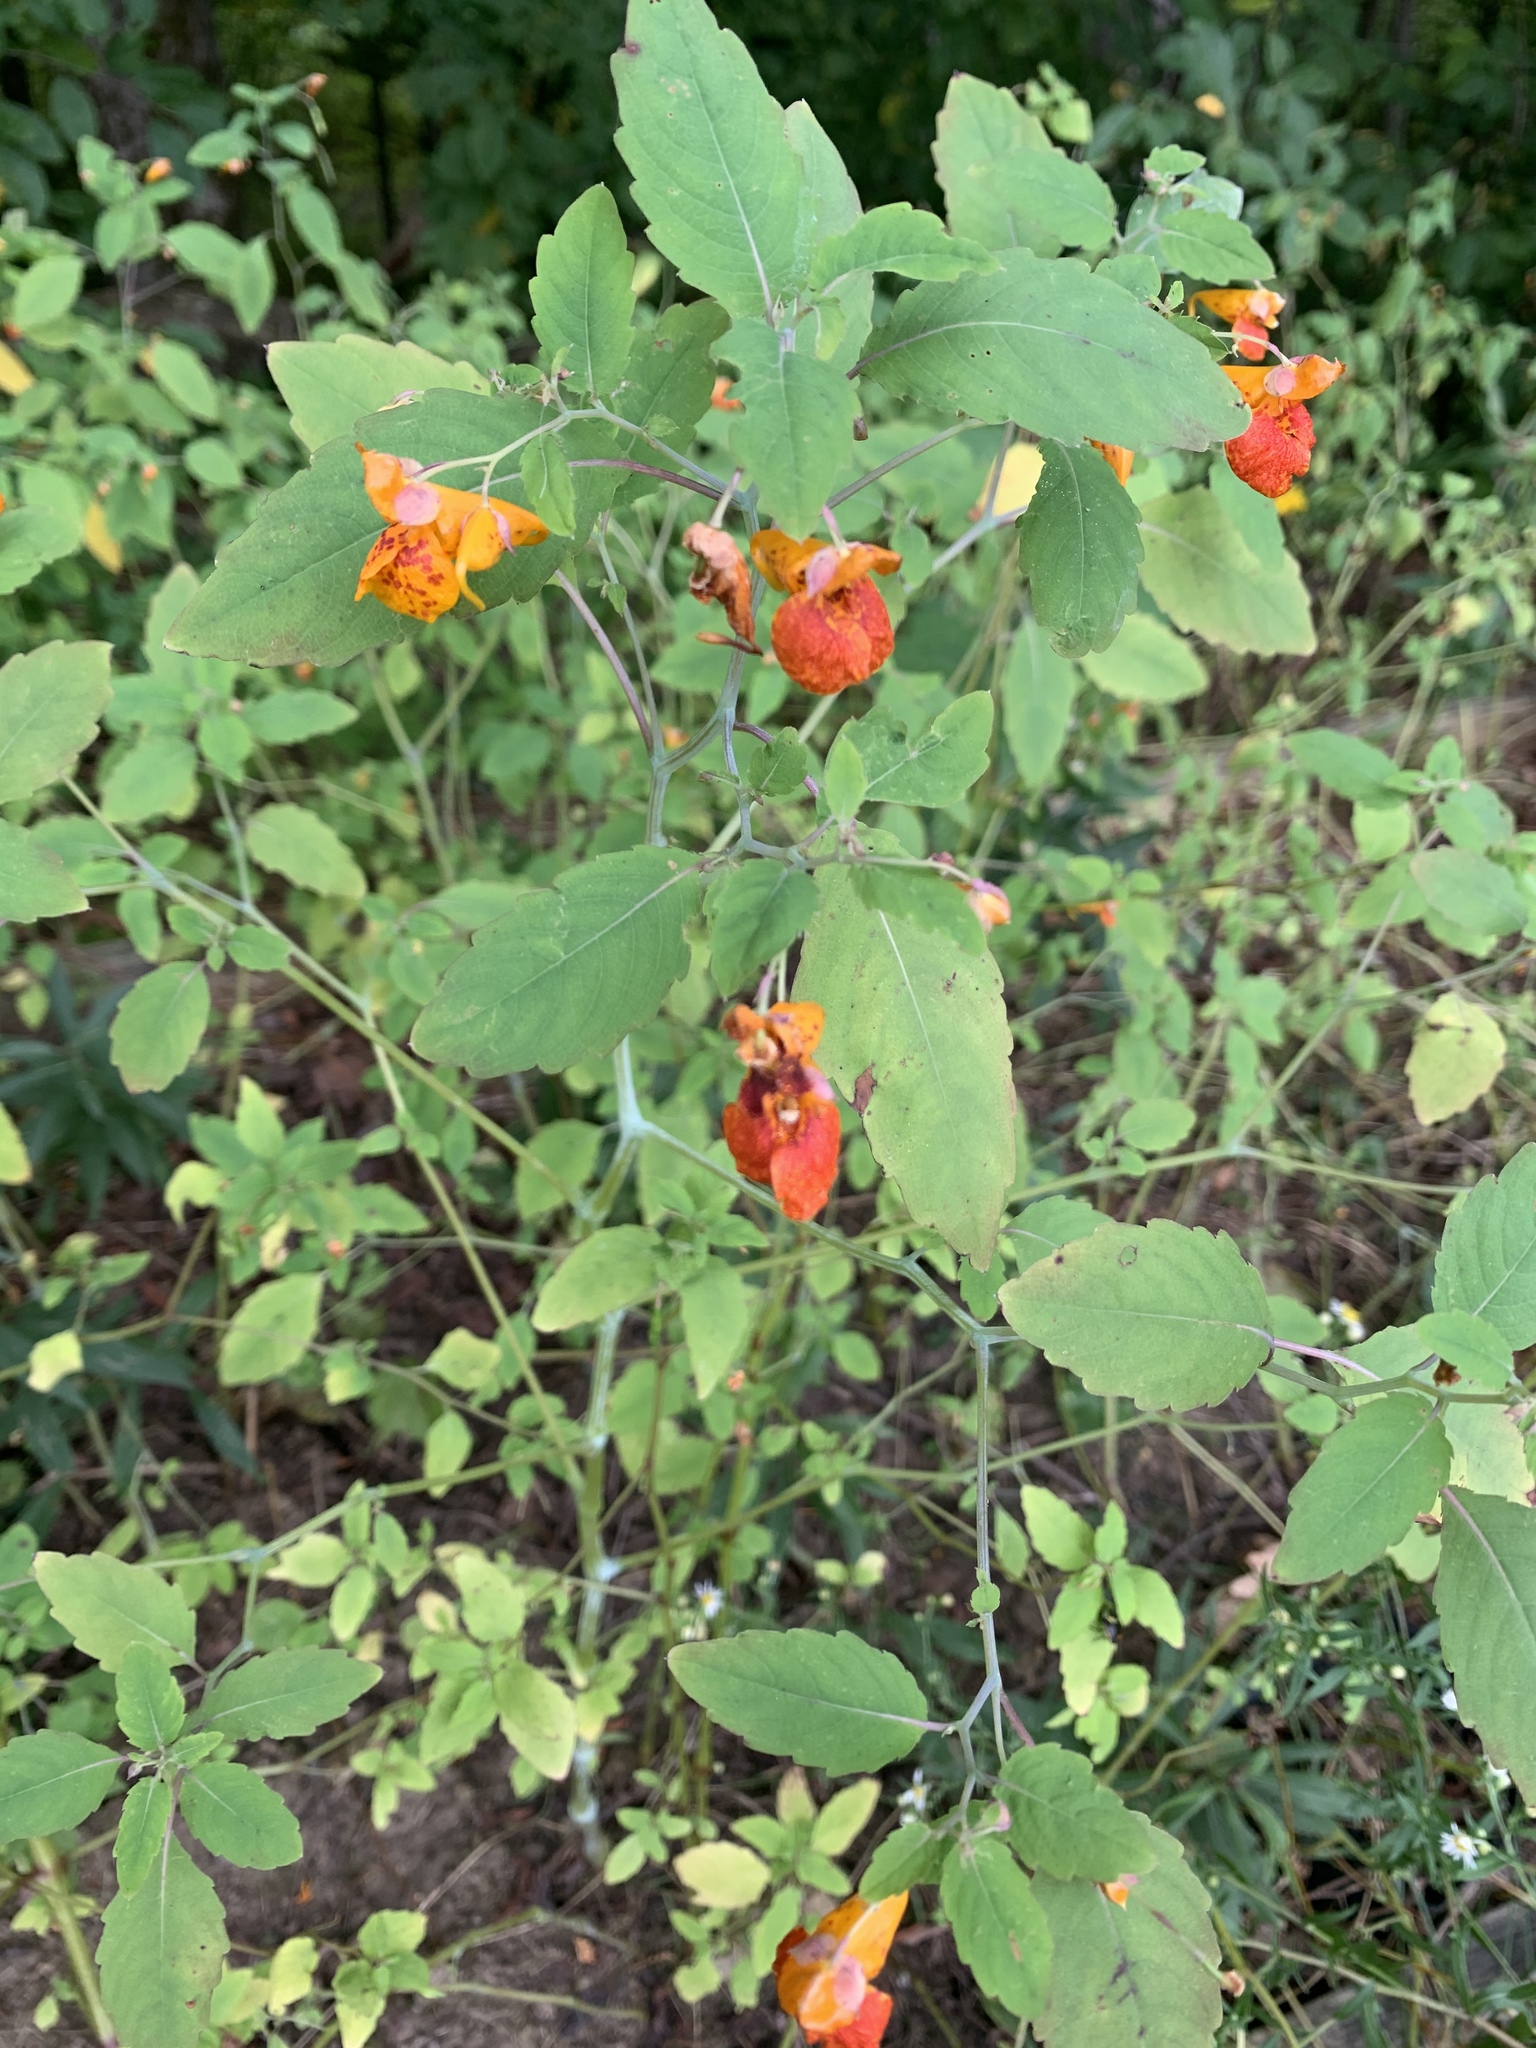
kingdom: Plantae
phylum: Tracheophyta
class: Magnoliopsida
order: Ericales
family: Balsaminaceae
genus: Impatiens
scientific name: Impatiens capensis
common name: Orange balsam
